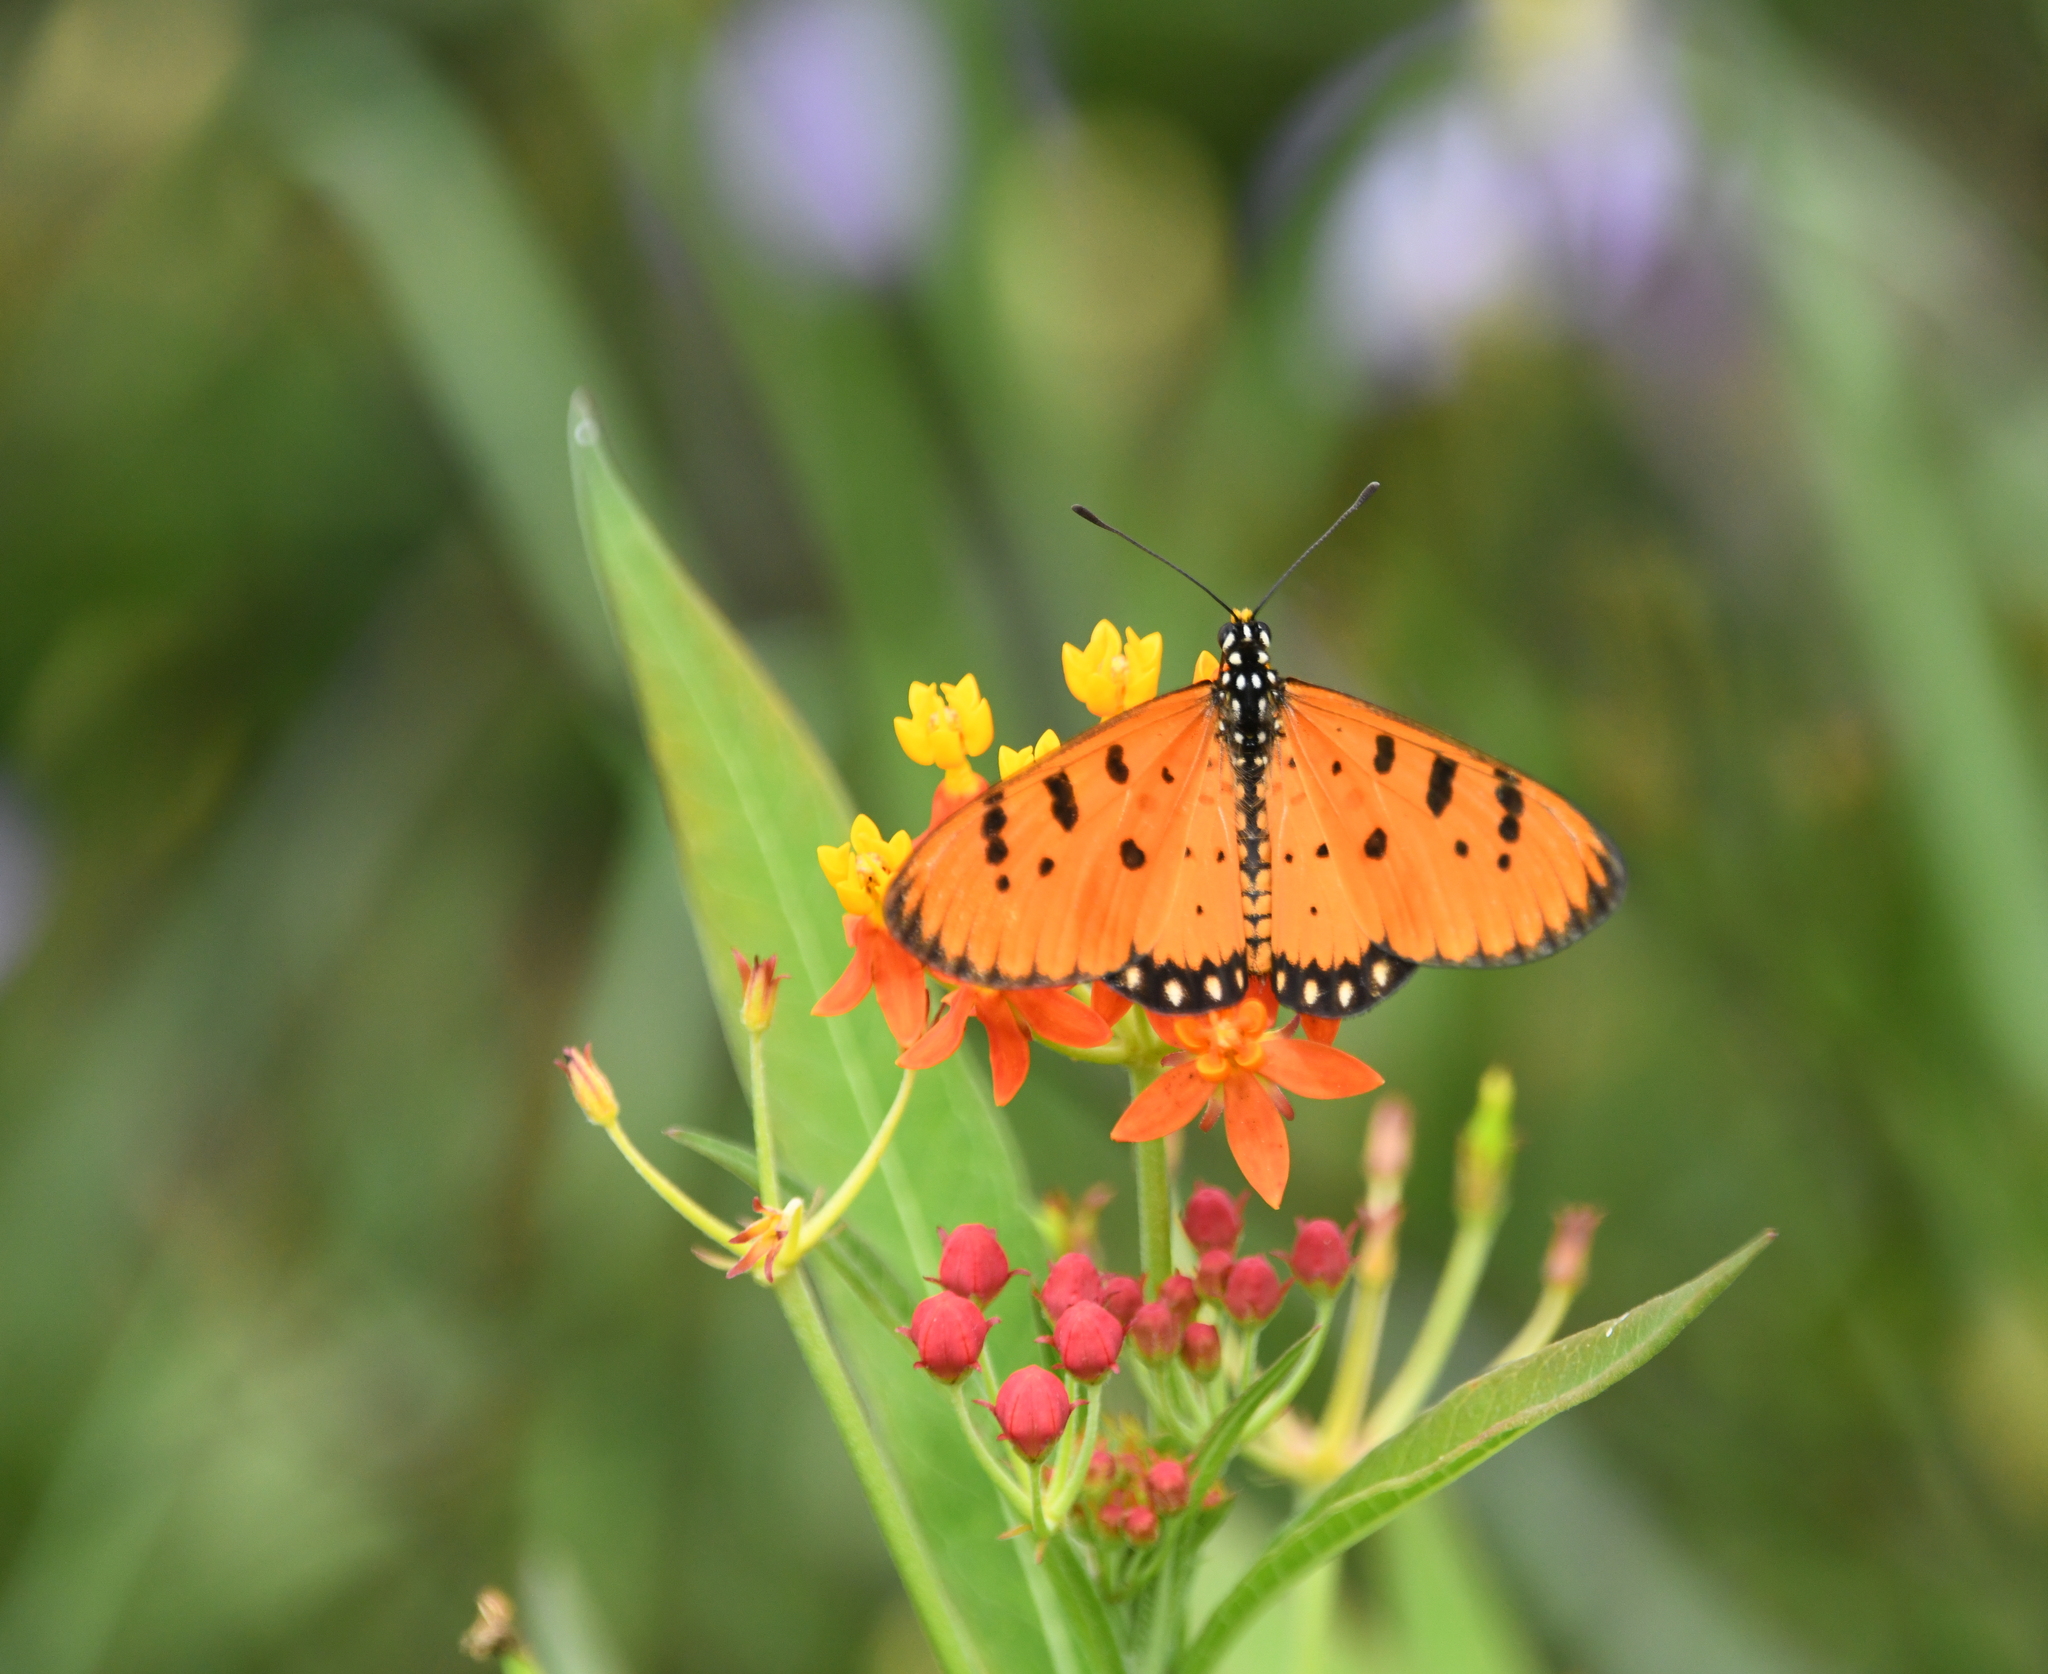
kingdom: Animalia
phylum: Arthropoda
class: Insecta
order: Lepidoptera
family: Nymphalidae
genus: Acraea
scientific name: Acraea terpsicore
